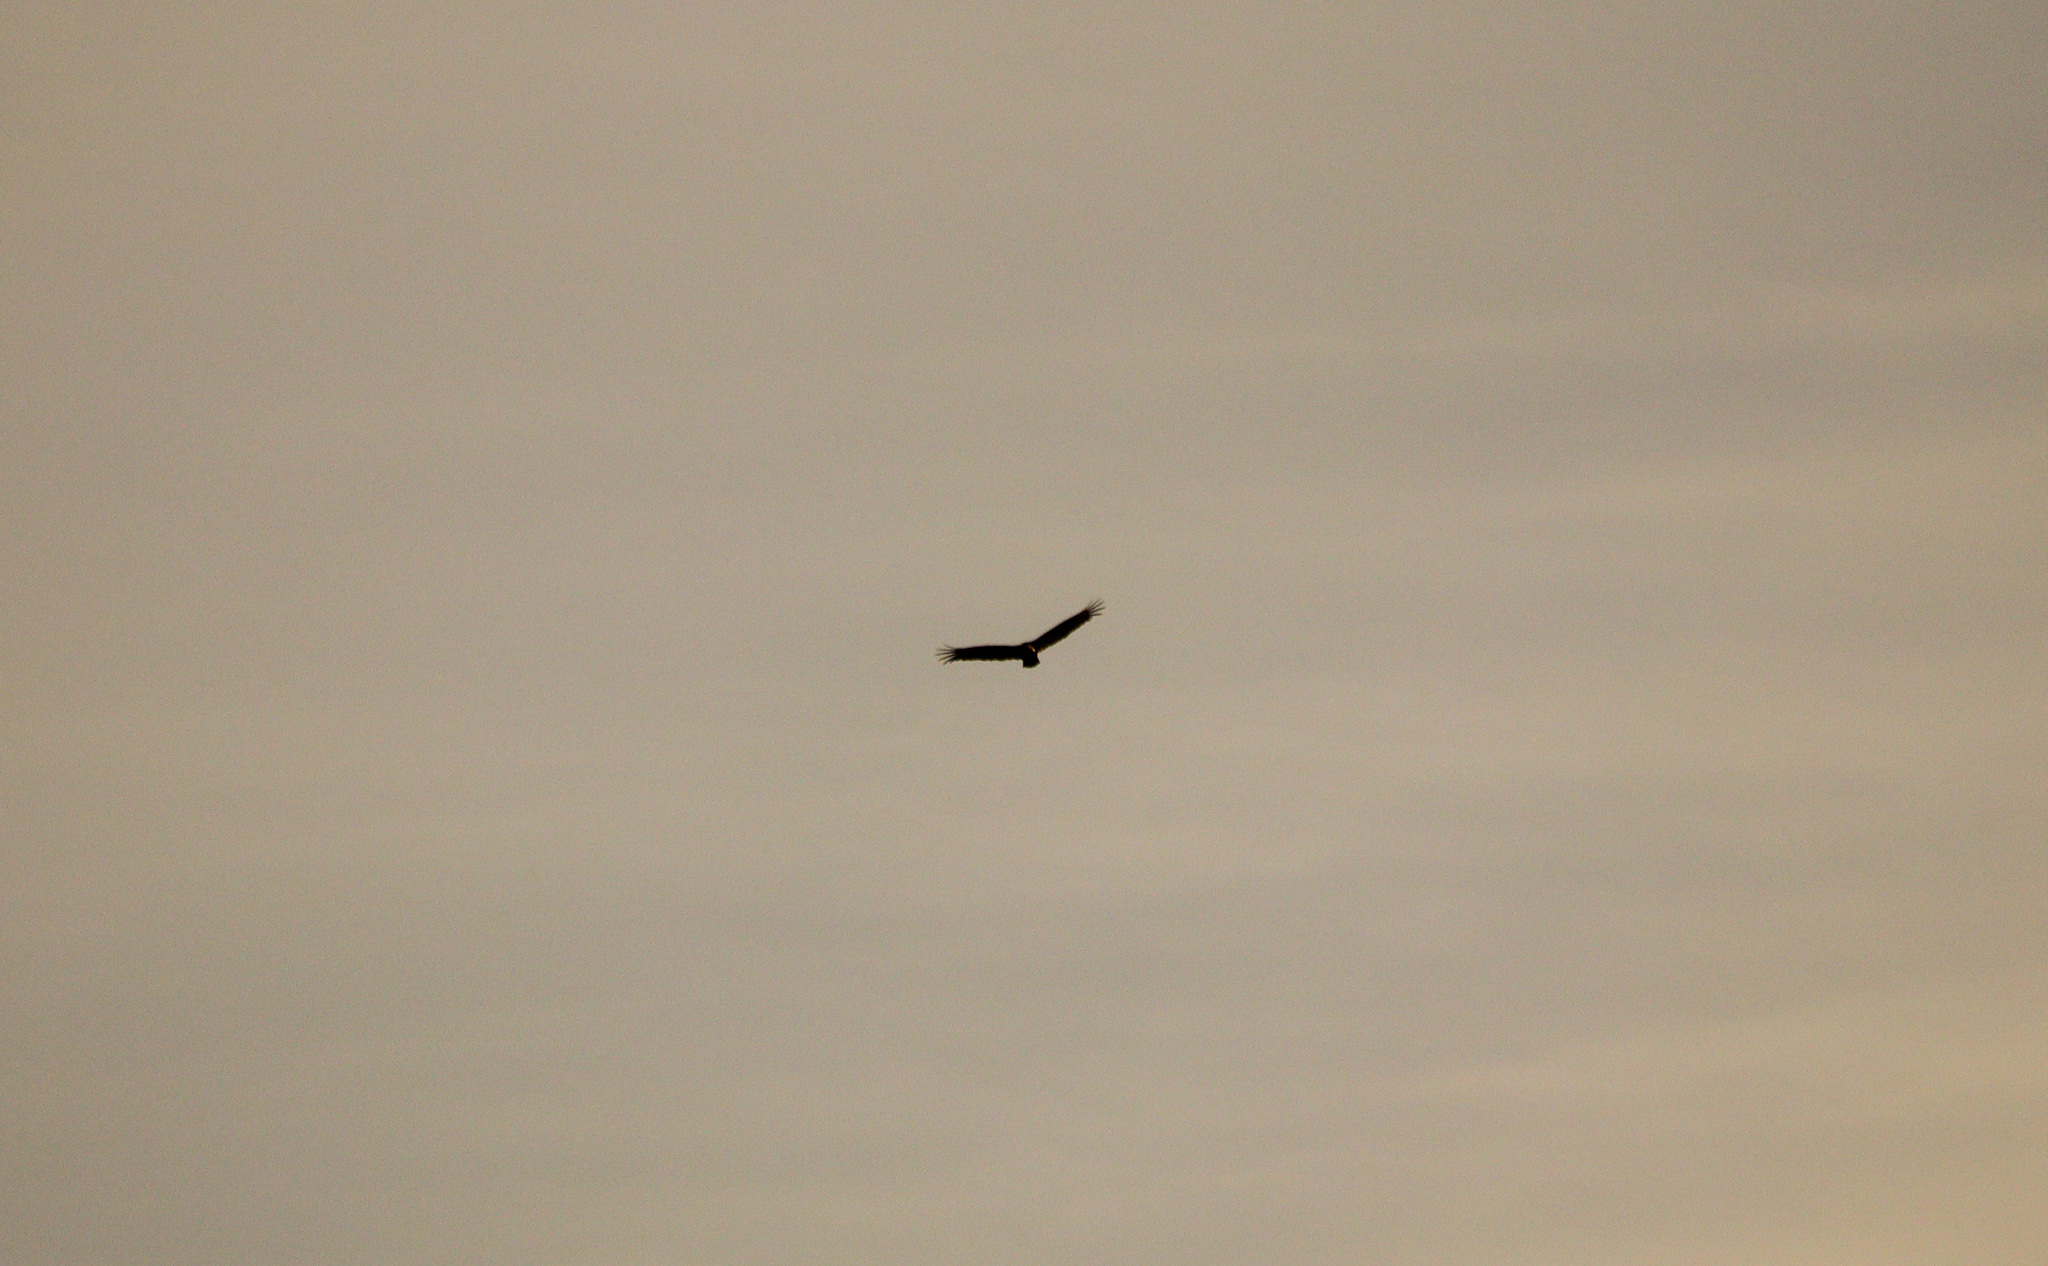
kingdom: Animalia
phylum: Chordata
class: Aves
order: Accipitriformes
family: Cathartidae
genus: Cathartes
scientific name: Cathartes aura
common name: Turkey vulture
